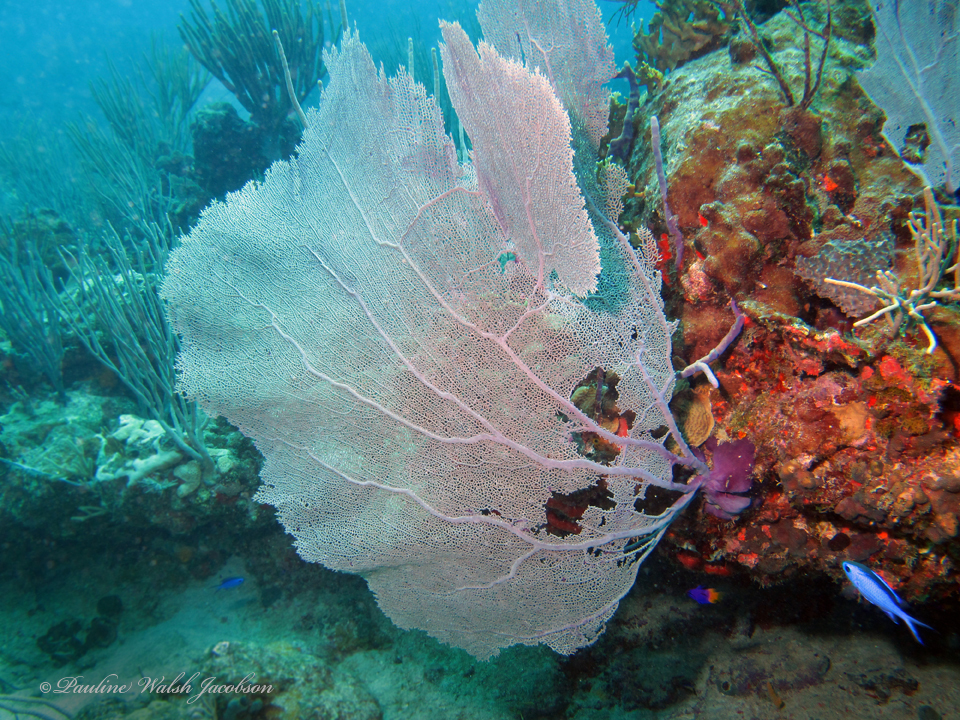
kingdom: Animalia
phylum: Cnidaria
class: Anthozoa
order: Malacalcyonacea
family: Gorgoniidae
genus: Gorgonia
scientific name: Gorgonia ventalina
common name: Common sea fan
